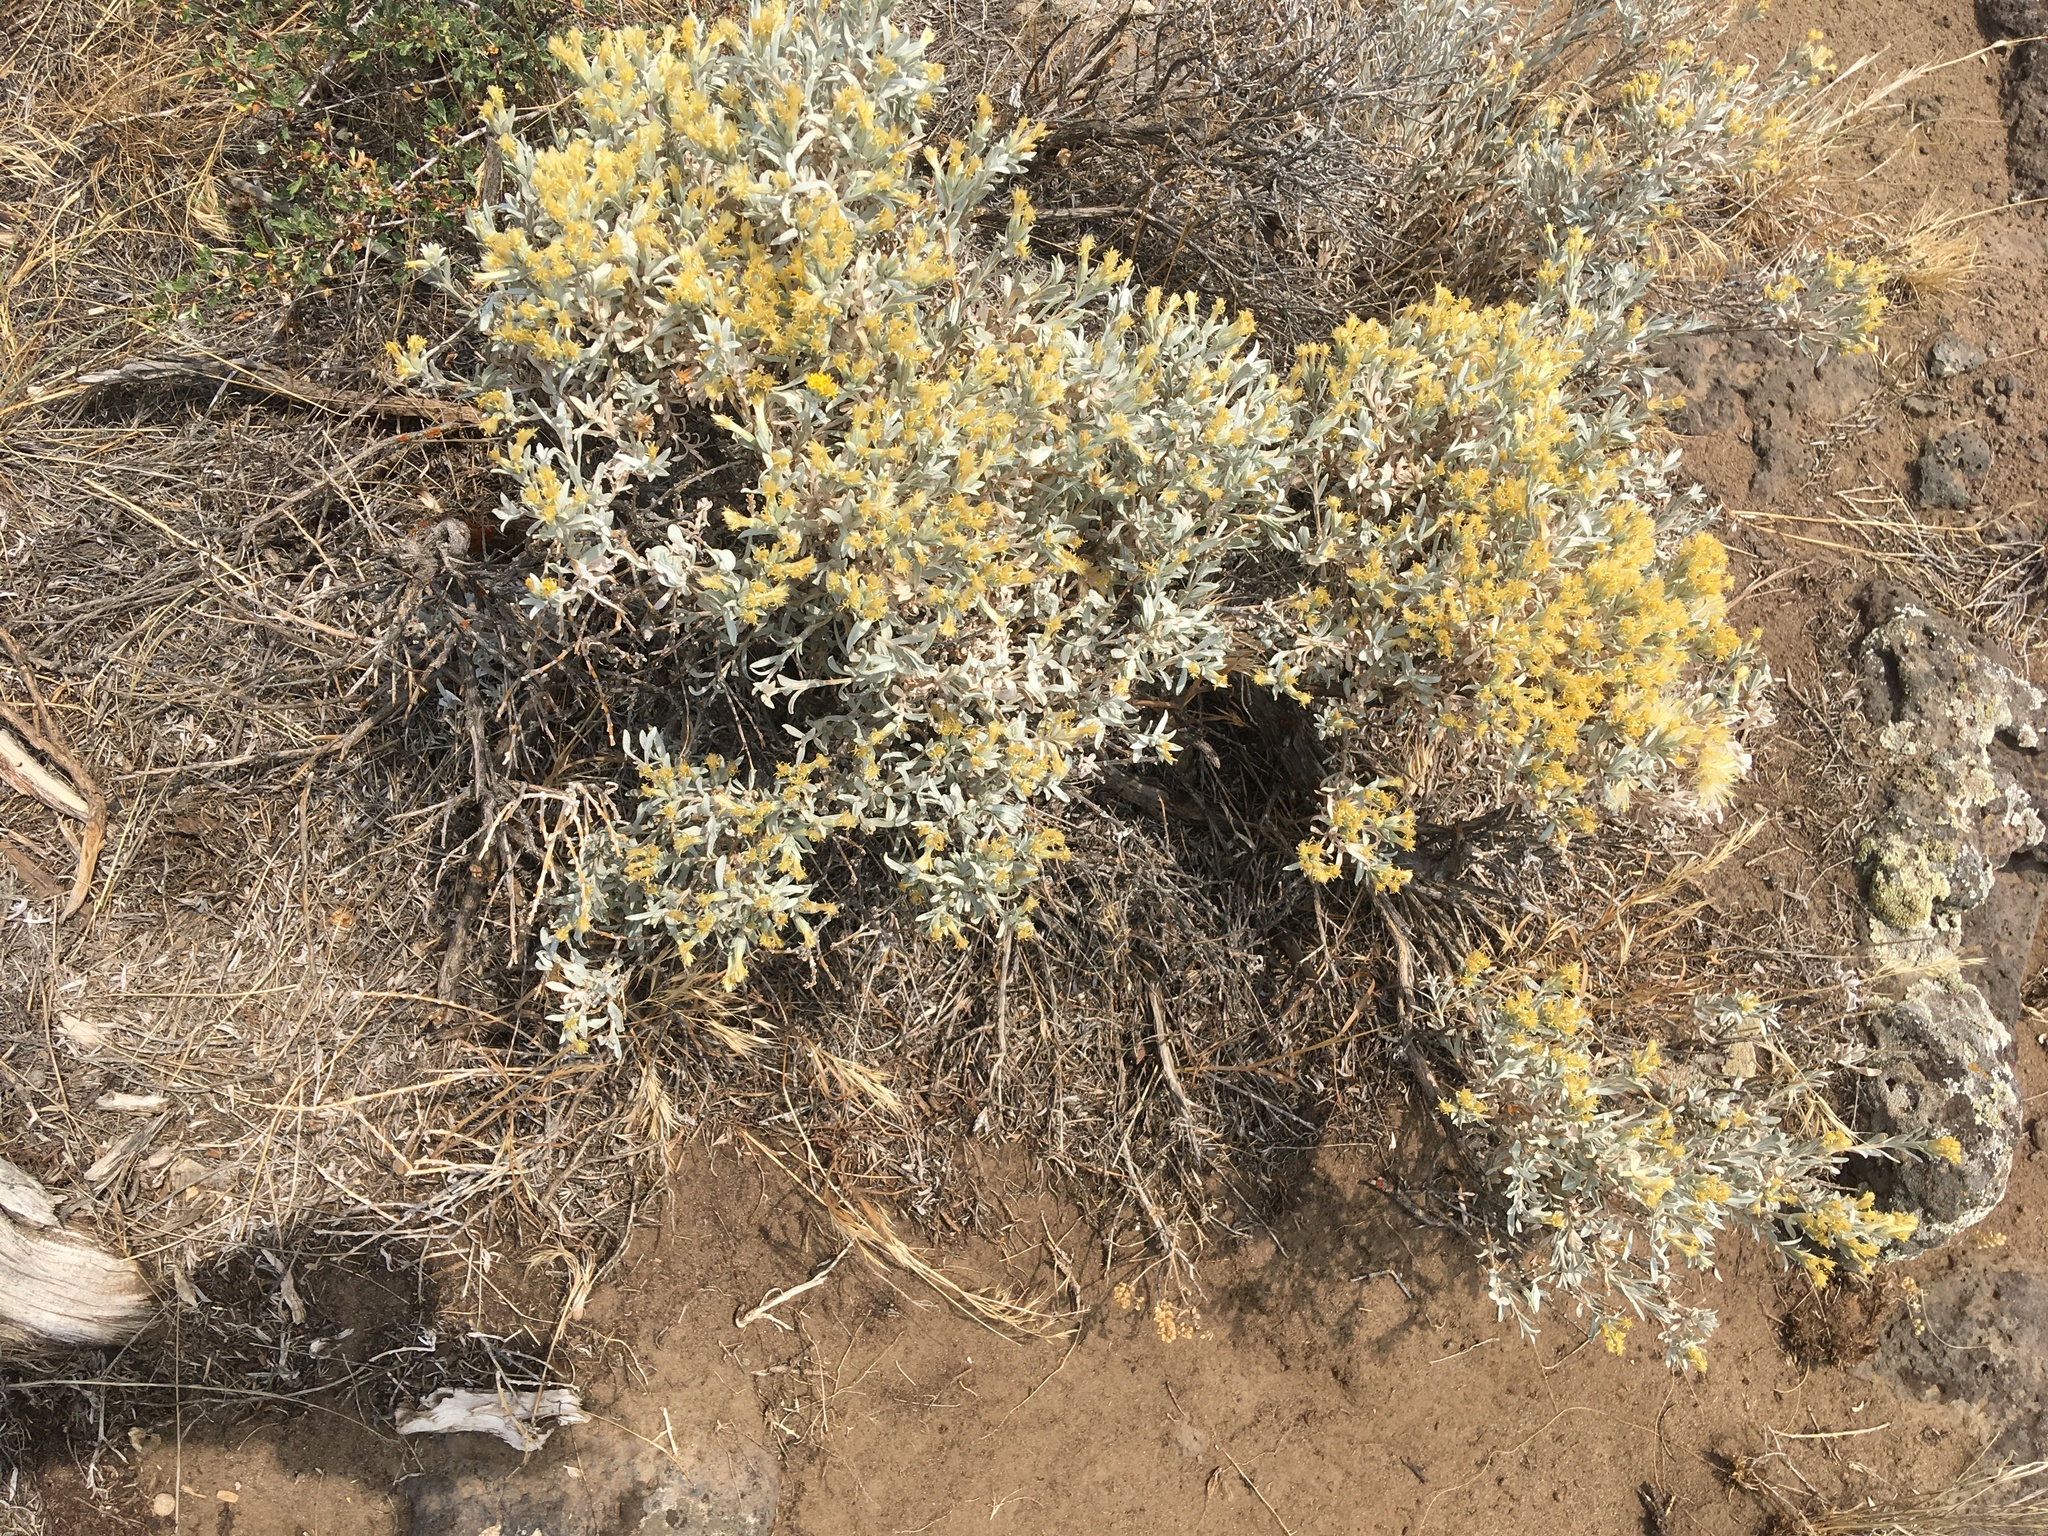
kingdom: Plantae
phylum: Tracheophyta
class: Magnoliopsida
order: Asterales
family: Asteraceae
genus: Tetradymia
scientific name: Tetradymia canescens
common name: Spineless horsebrush
